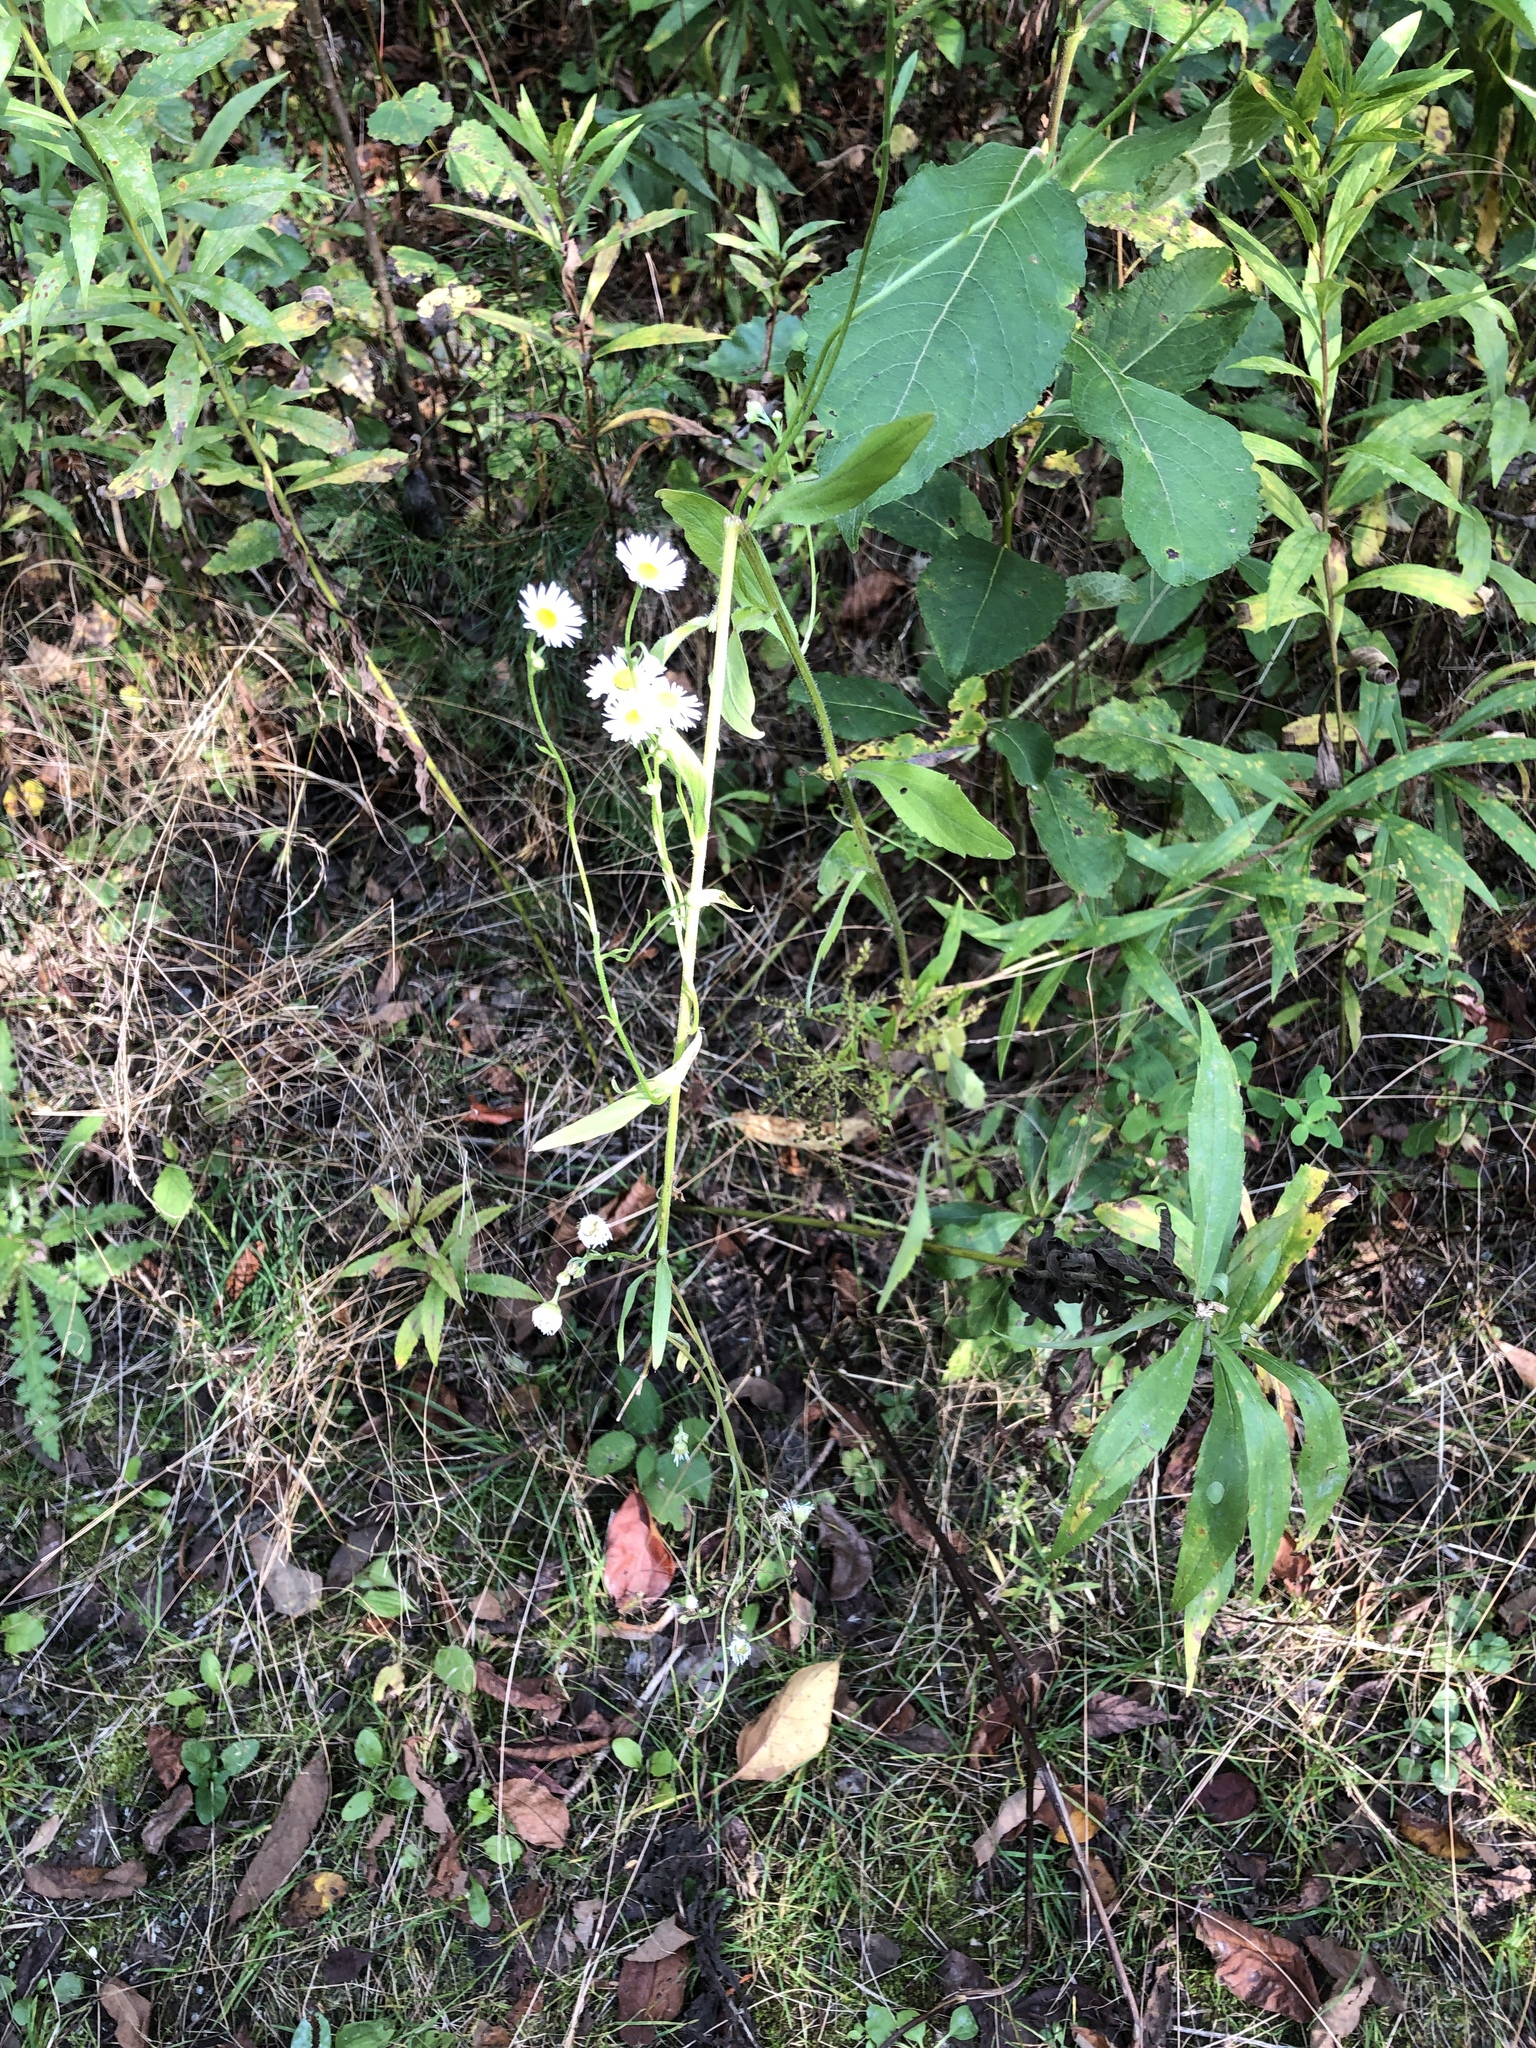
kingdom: Plantae
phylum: Tracheophyta
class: Magnoliopsida
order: Asterales
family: Asteraceae
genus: Erigeron
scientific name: Erigeron annuus
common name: Tall fleabane
